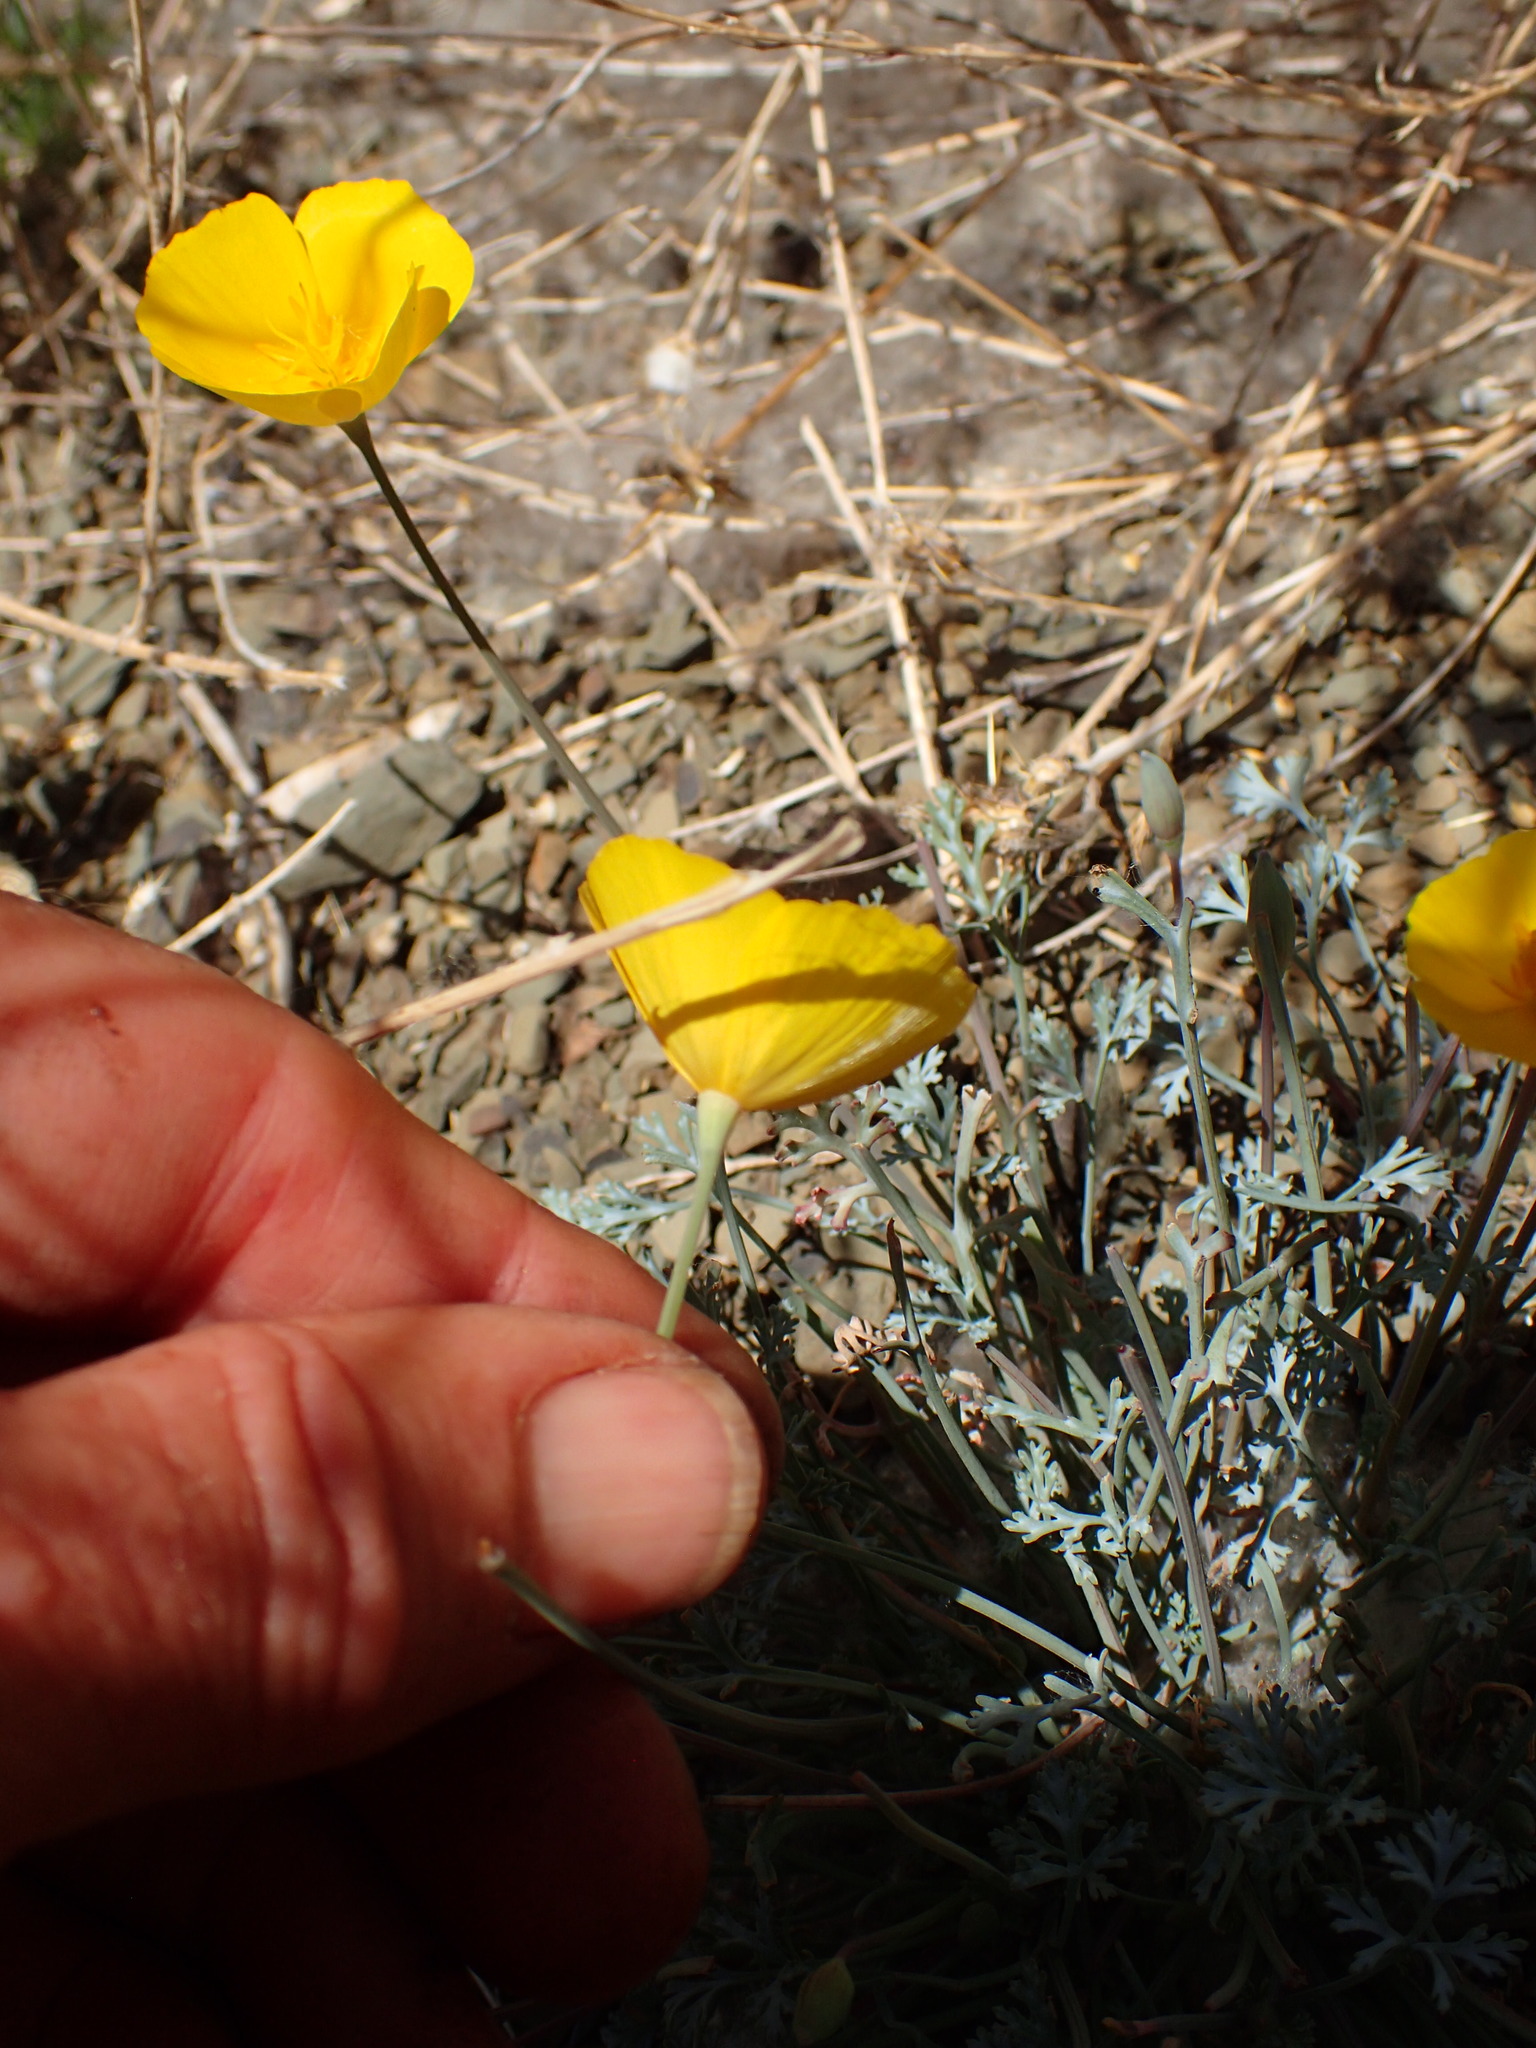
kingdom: Plantae
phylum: Tracheophyta
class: Magnoliopsida
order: Ranunculales
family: Papaveraceae
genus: Eschscholzia
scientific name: Eschscholzia caespitosa
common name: Tufted california-poppy
